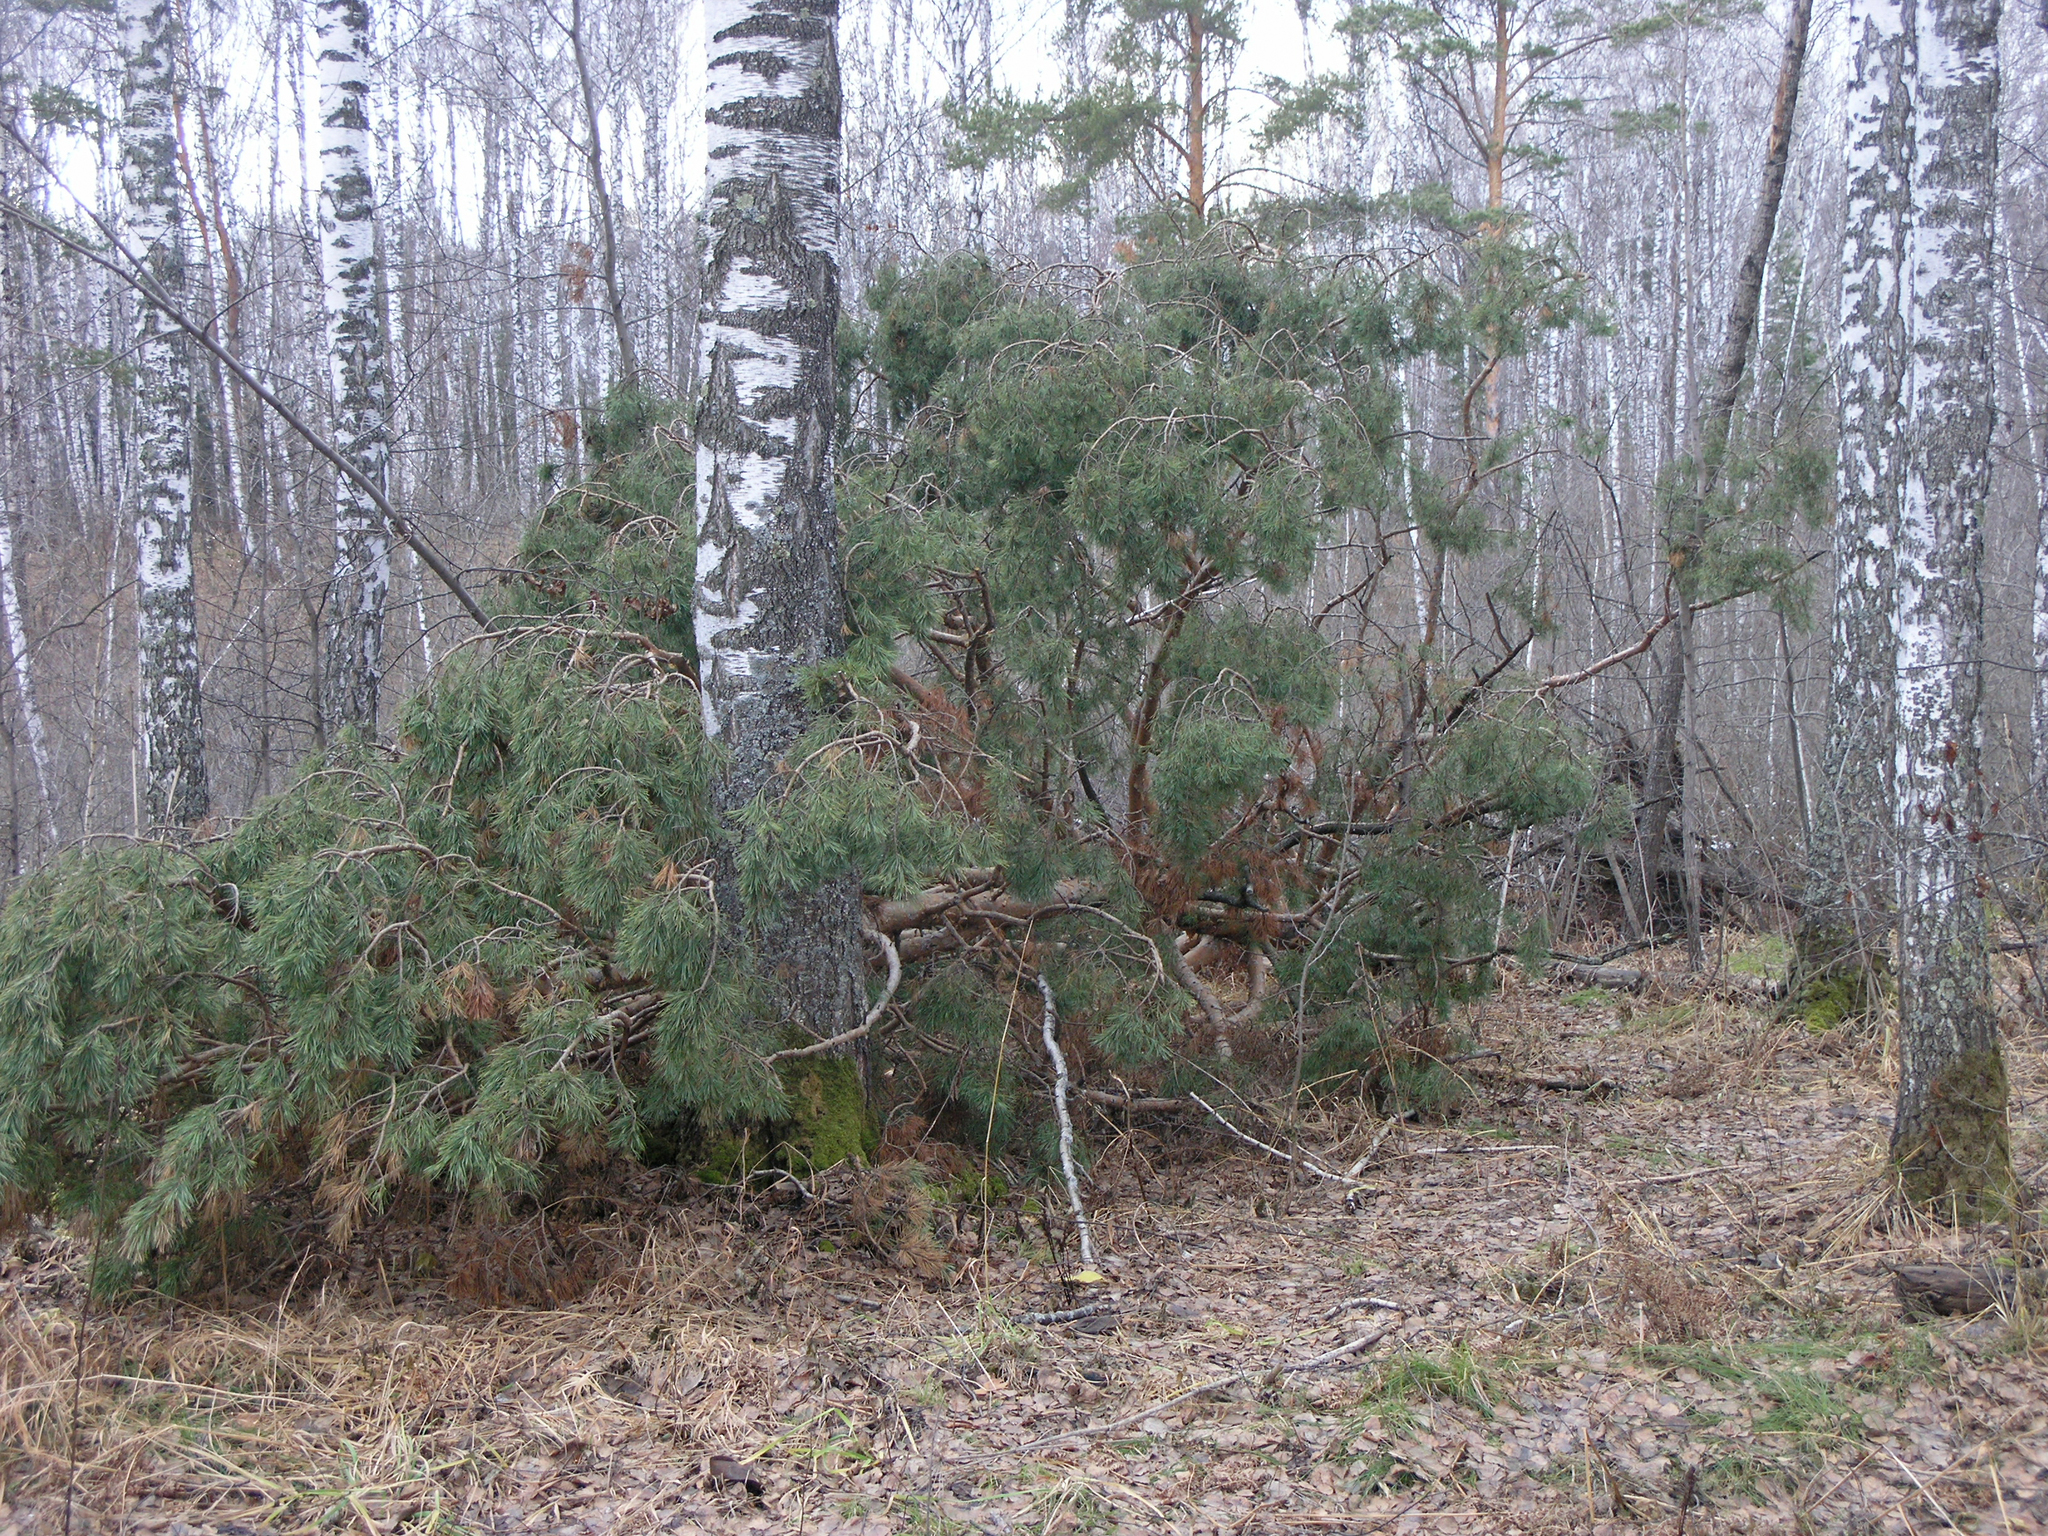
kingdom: Plantae
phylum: Tracheophyta
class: Pinopsida
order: Pinales
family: Pinaceae
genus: Pinus
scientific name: Pinus sylvestris
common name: Scots pine
